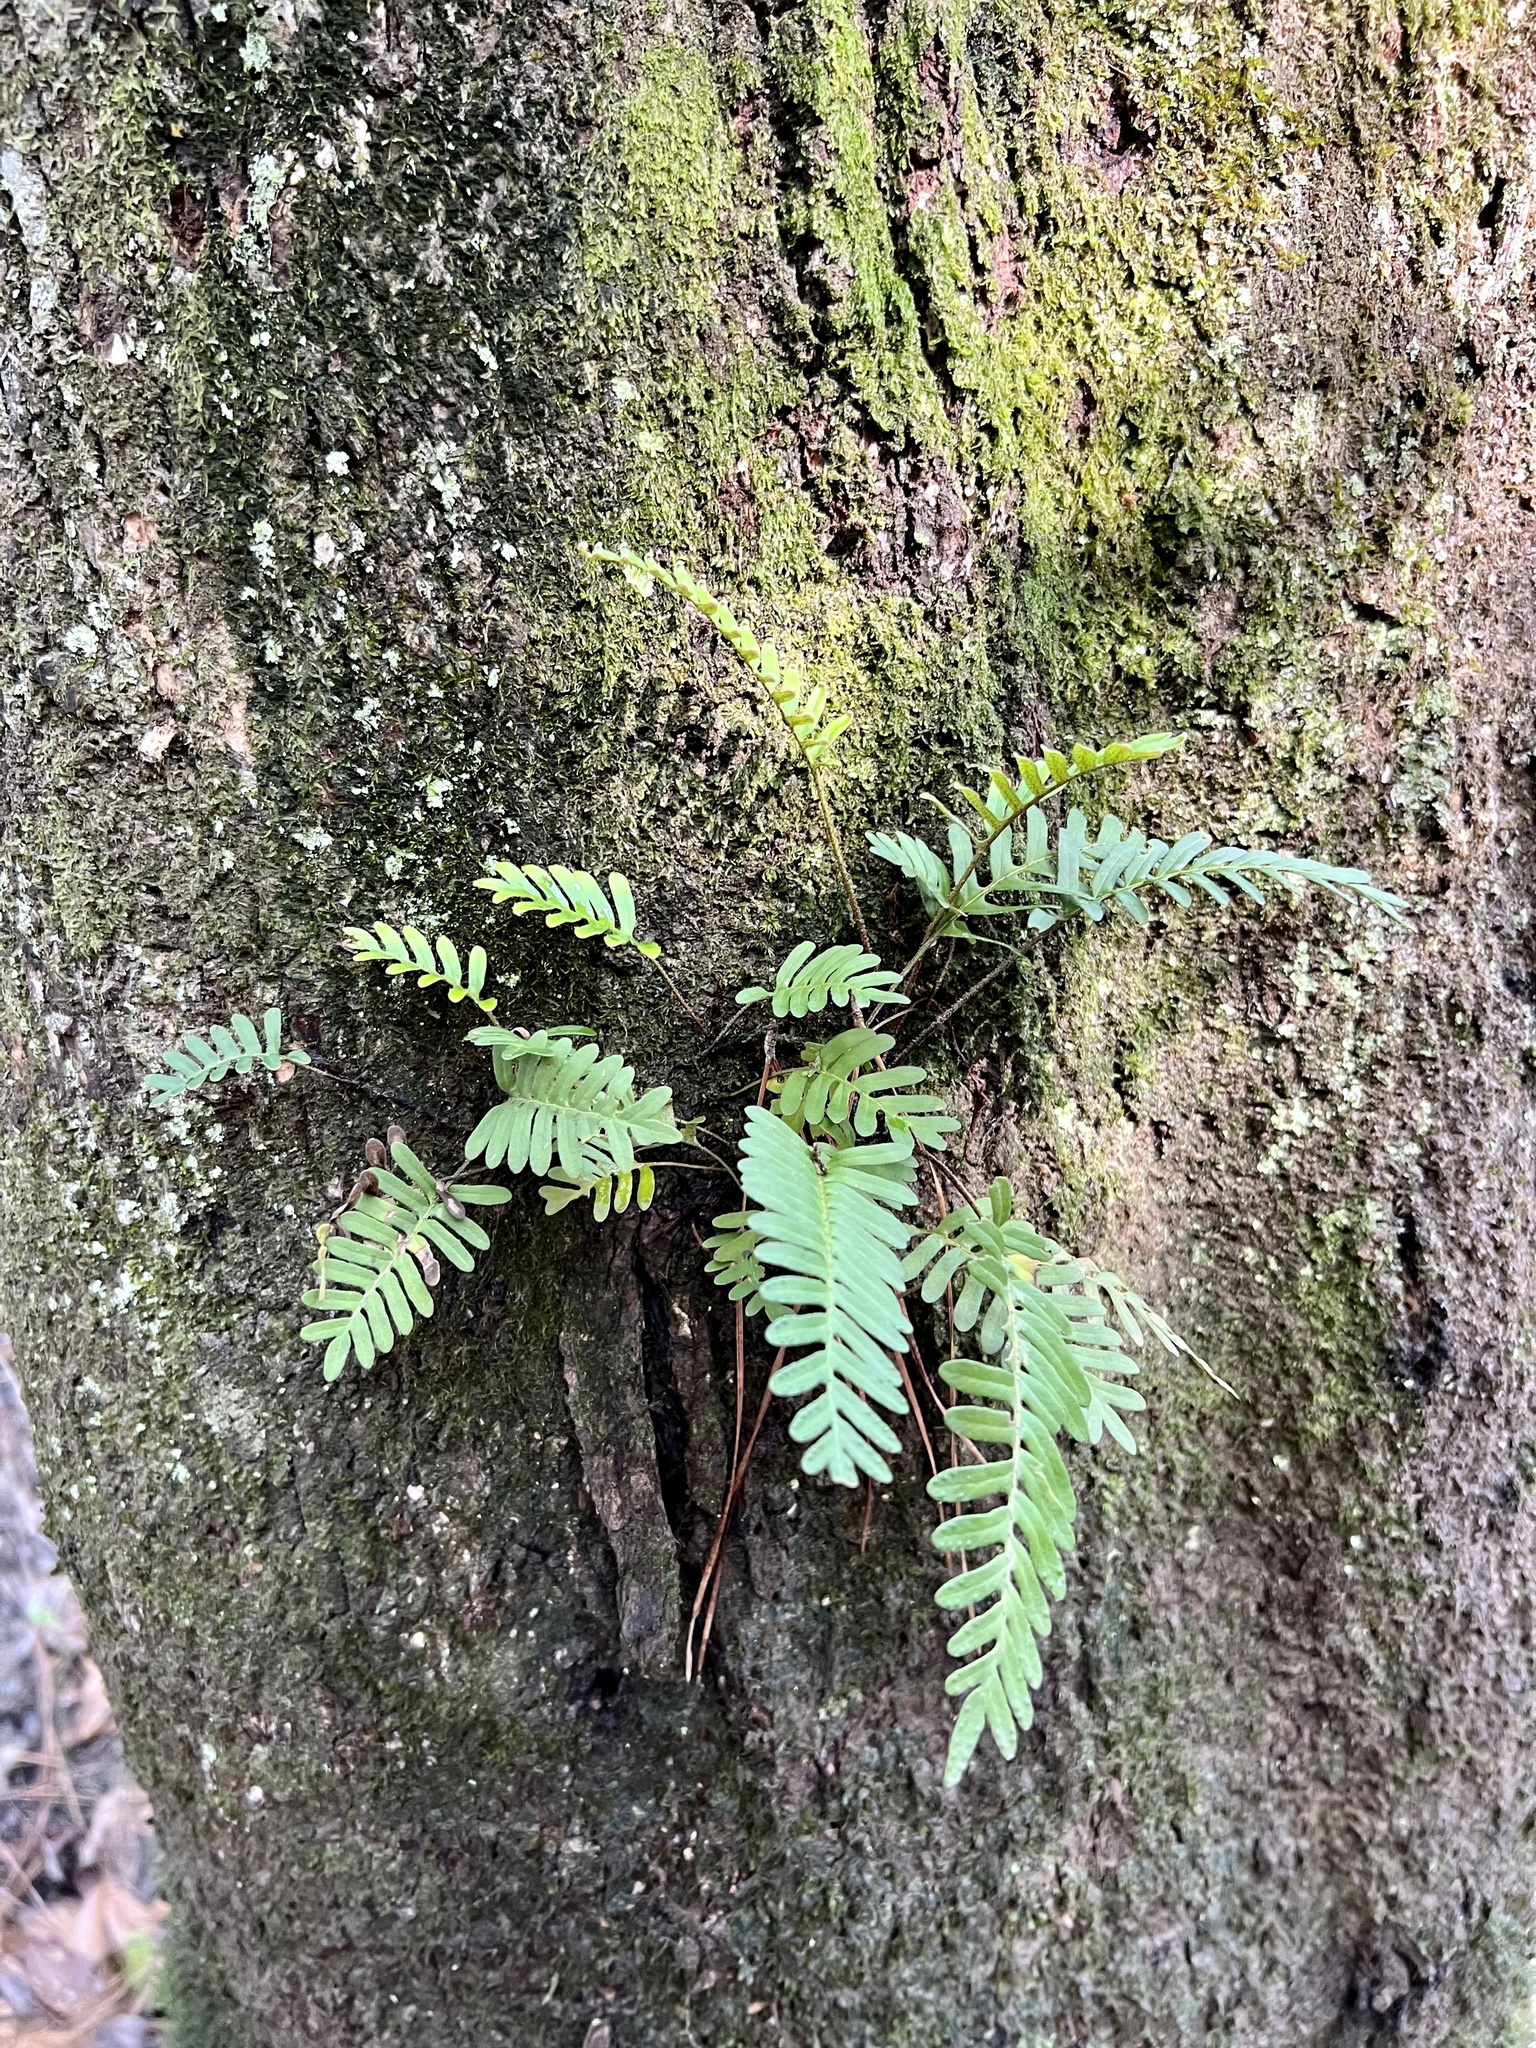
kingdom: Plantae
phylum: Tracheophyta
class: Polypodiopsida
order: Polypodiales
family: Polypodiaceae
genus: Pleopeltis
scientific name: Pleopeltis michauxiana
